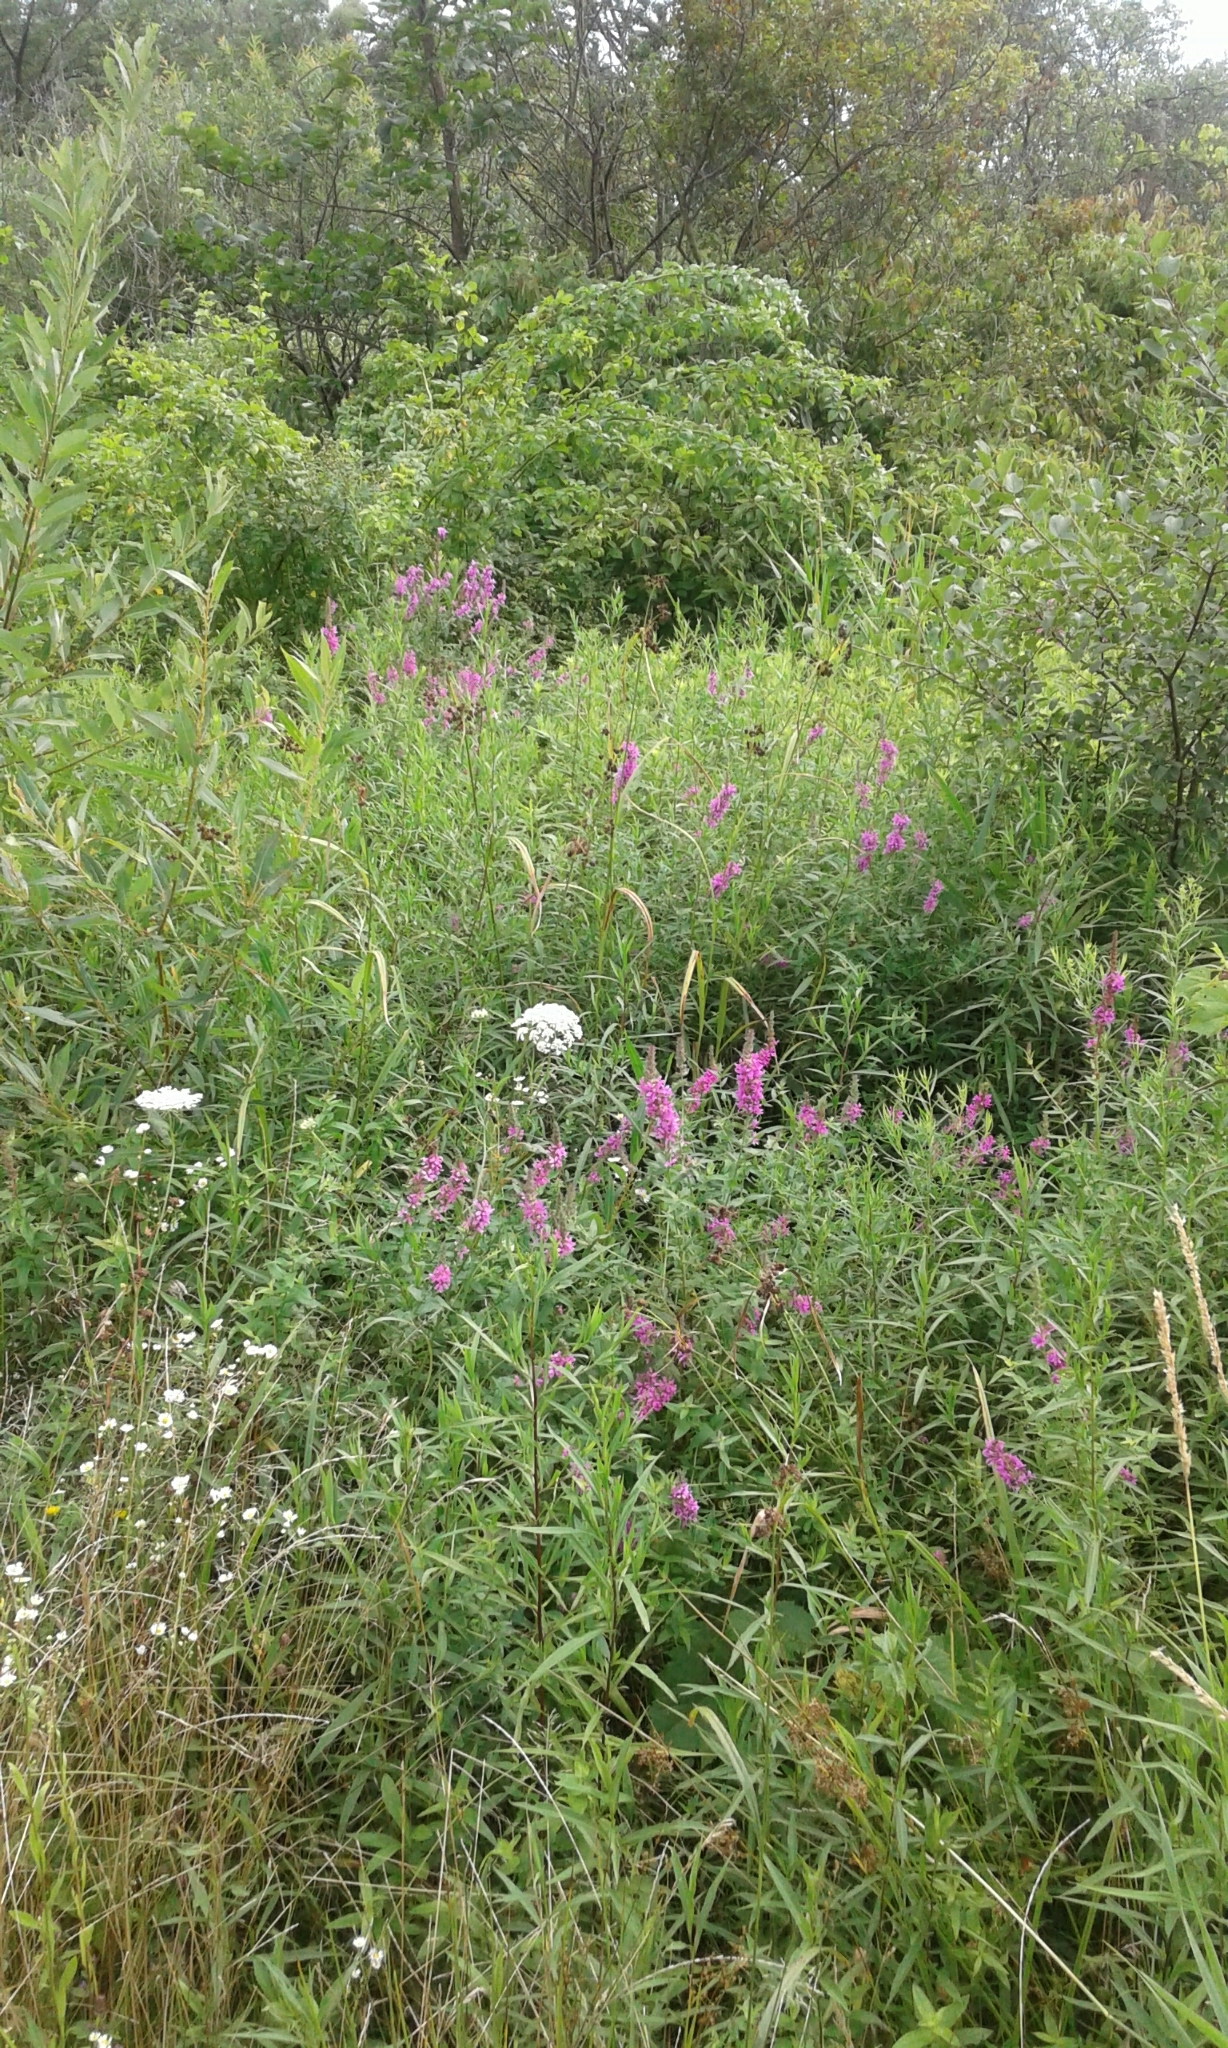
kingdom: Plantae
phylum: Tracheophyta
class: Magnoliopsida
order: Myrtales
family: Lythraceae
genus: Lythrum
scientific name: Lythrum salicaria
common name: Purple loosestrife
